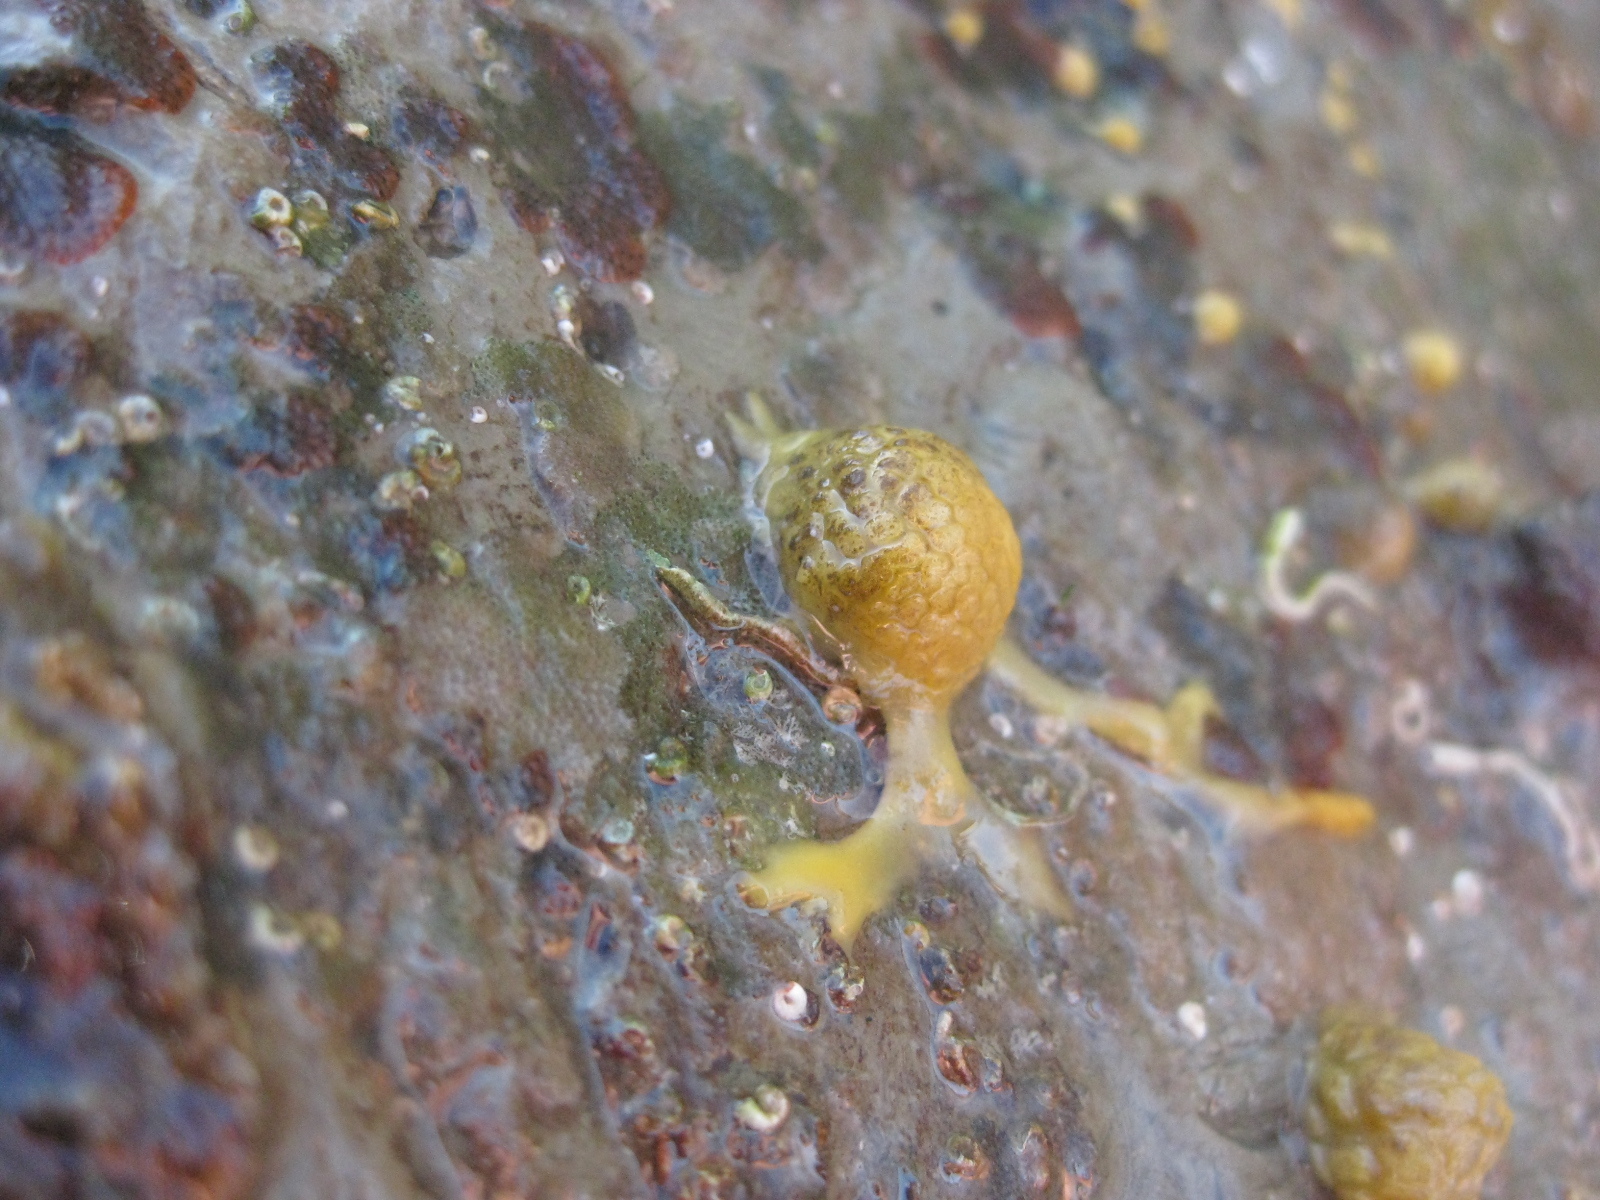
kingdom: Animalia
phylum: Porifera
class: Demospongiae
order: Tethyida
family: Tethyidae
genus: Tethya
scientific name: Tethya stolonifera
